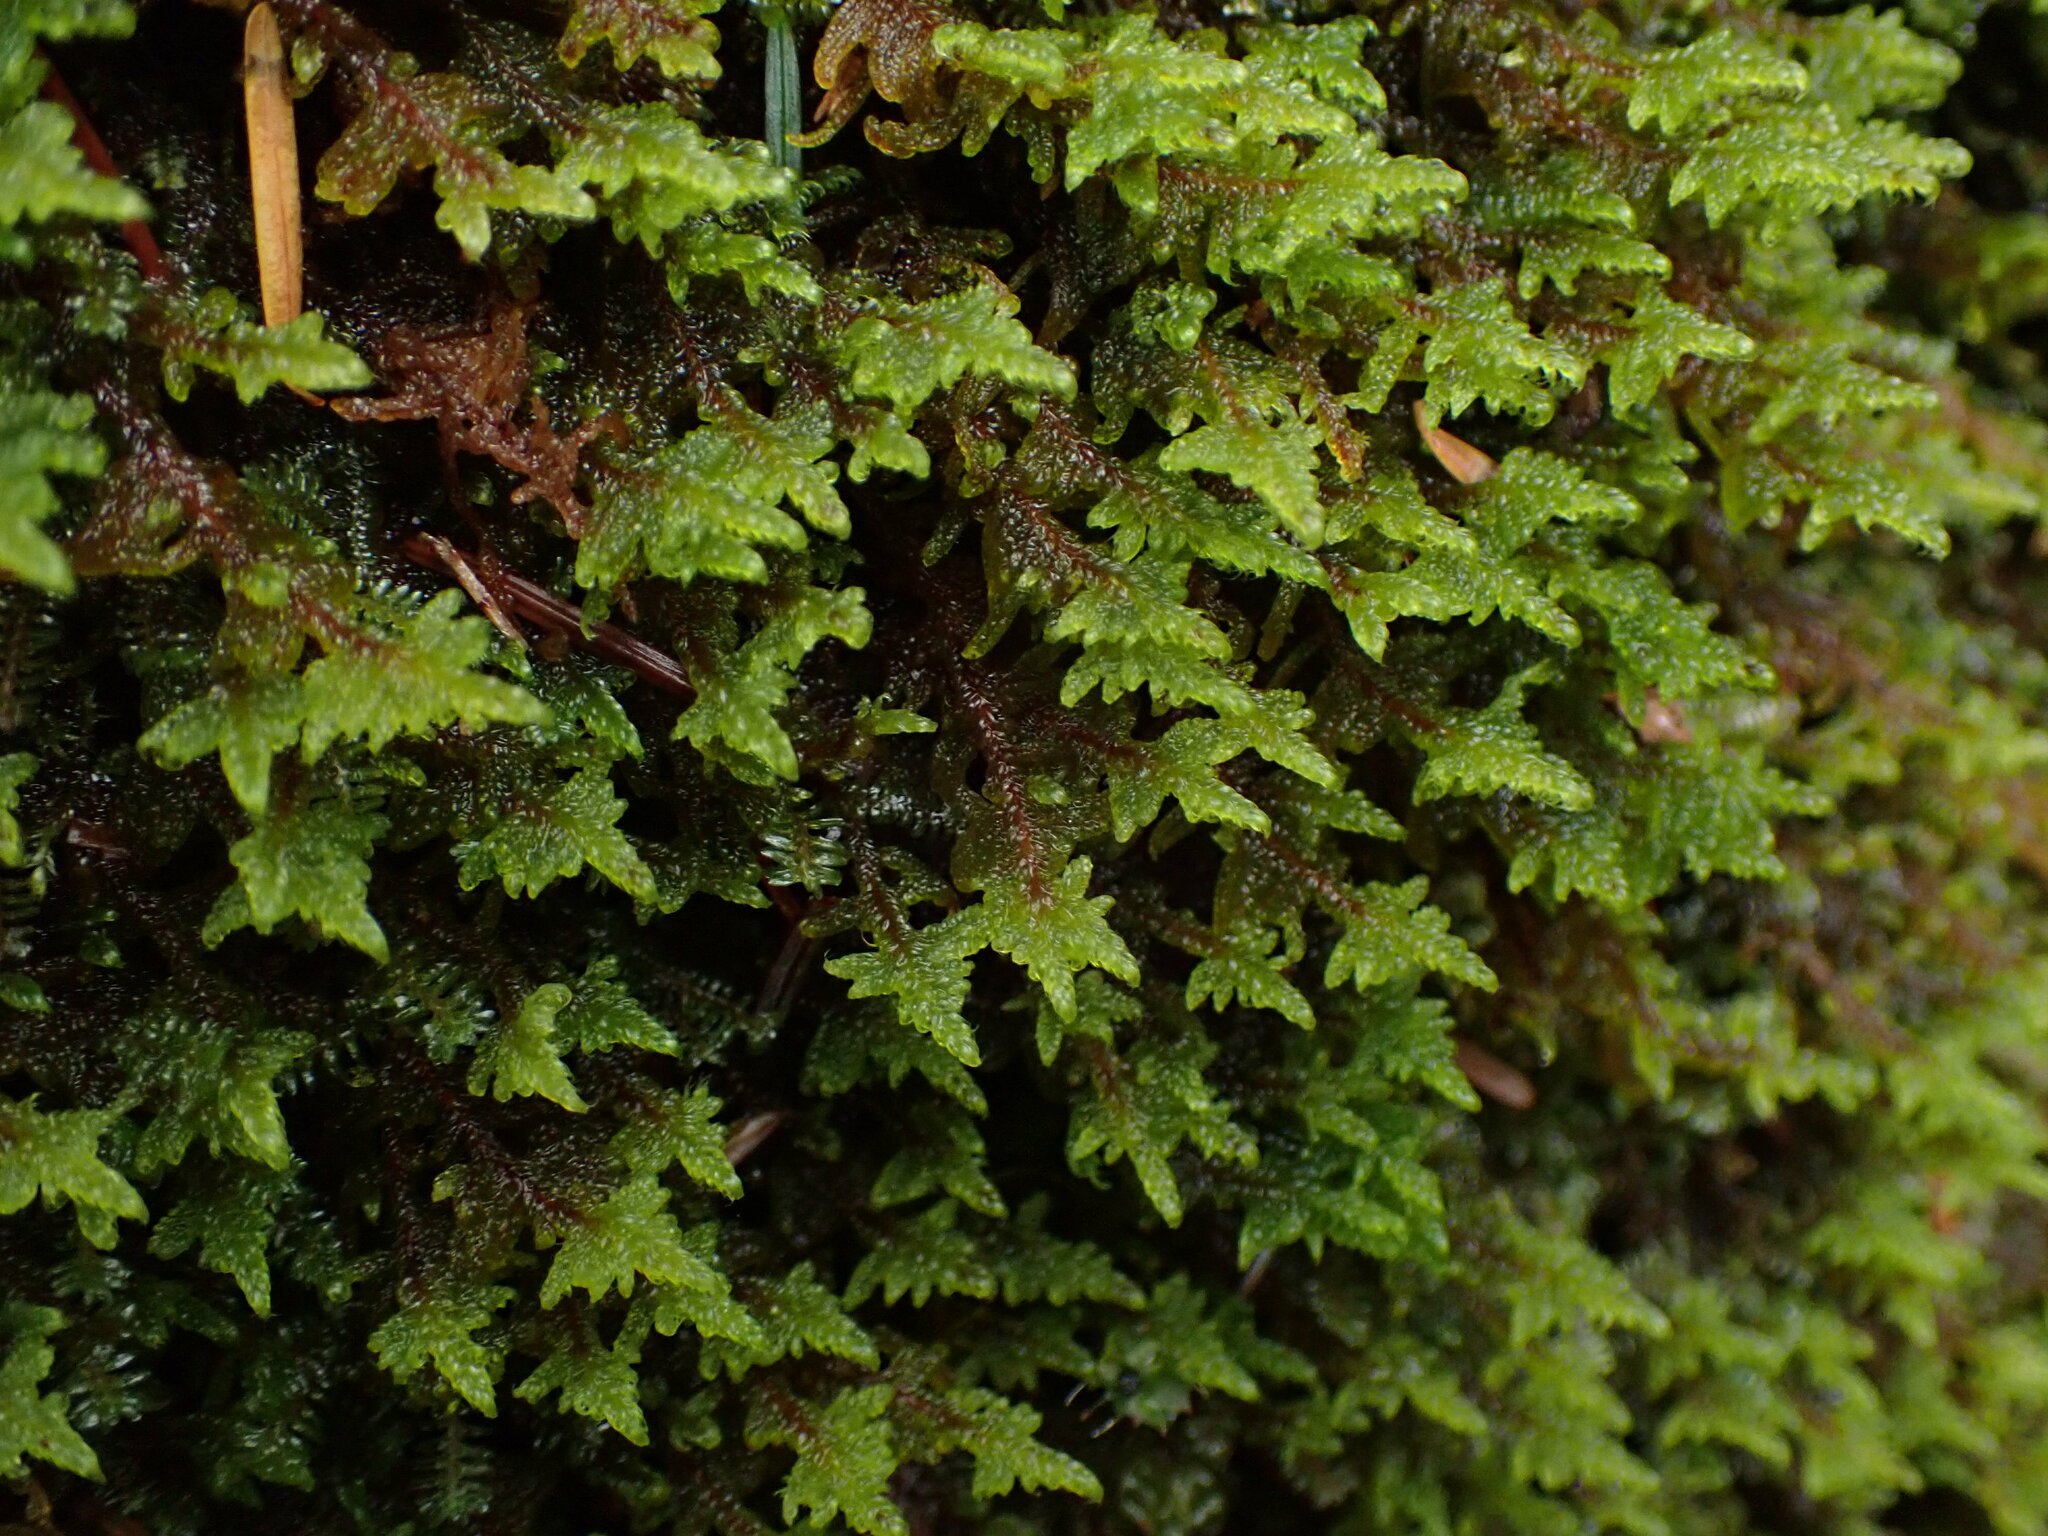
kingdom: Plantae
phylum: Bryophyta
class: Bryopsida
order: Hypnales
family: Stereodontaceae
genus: Stereodon
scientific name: Stereodon subimponens
